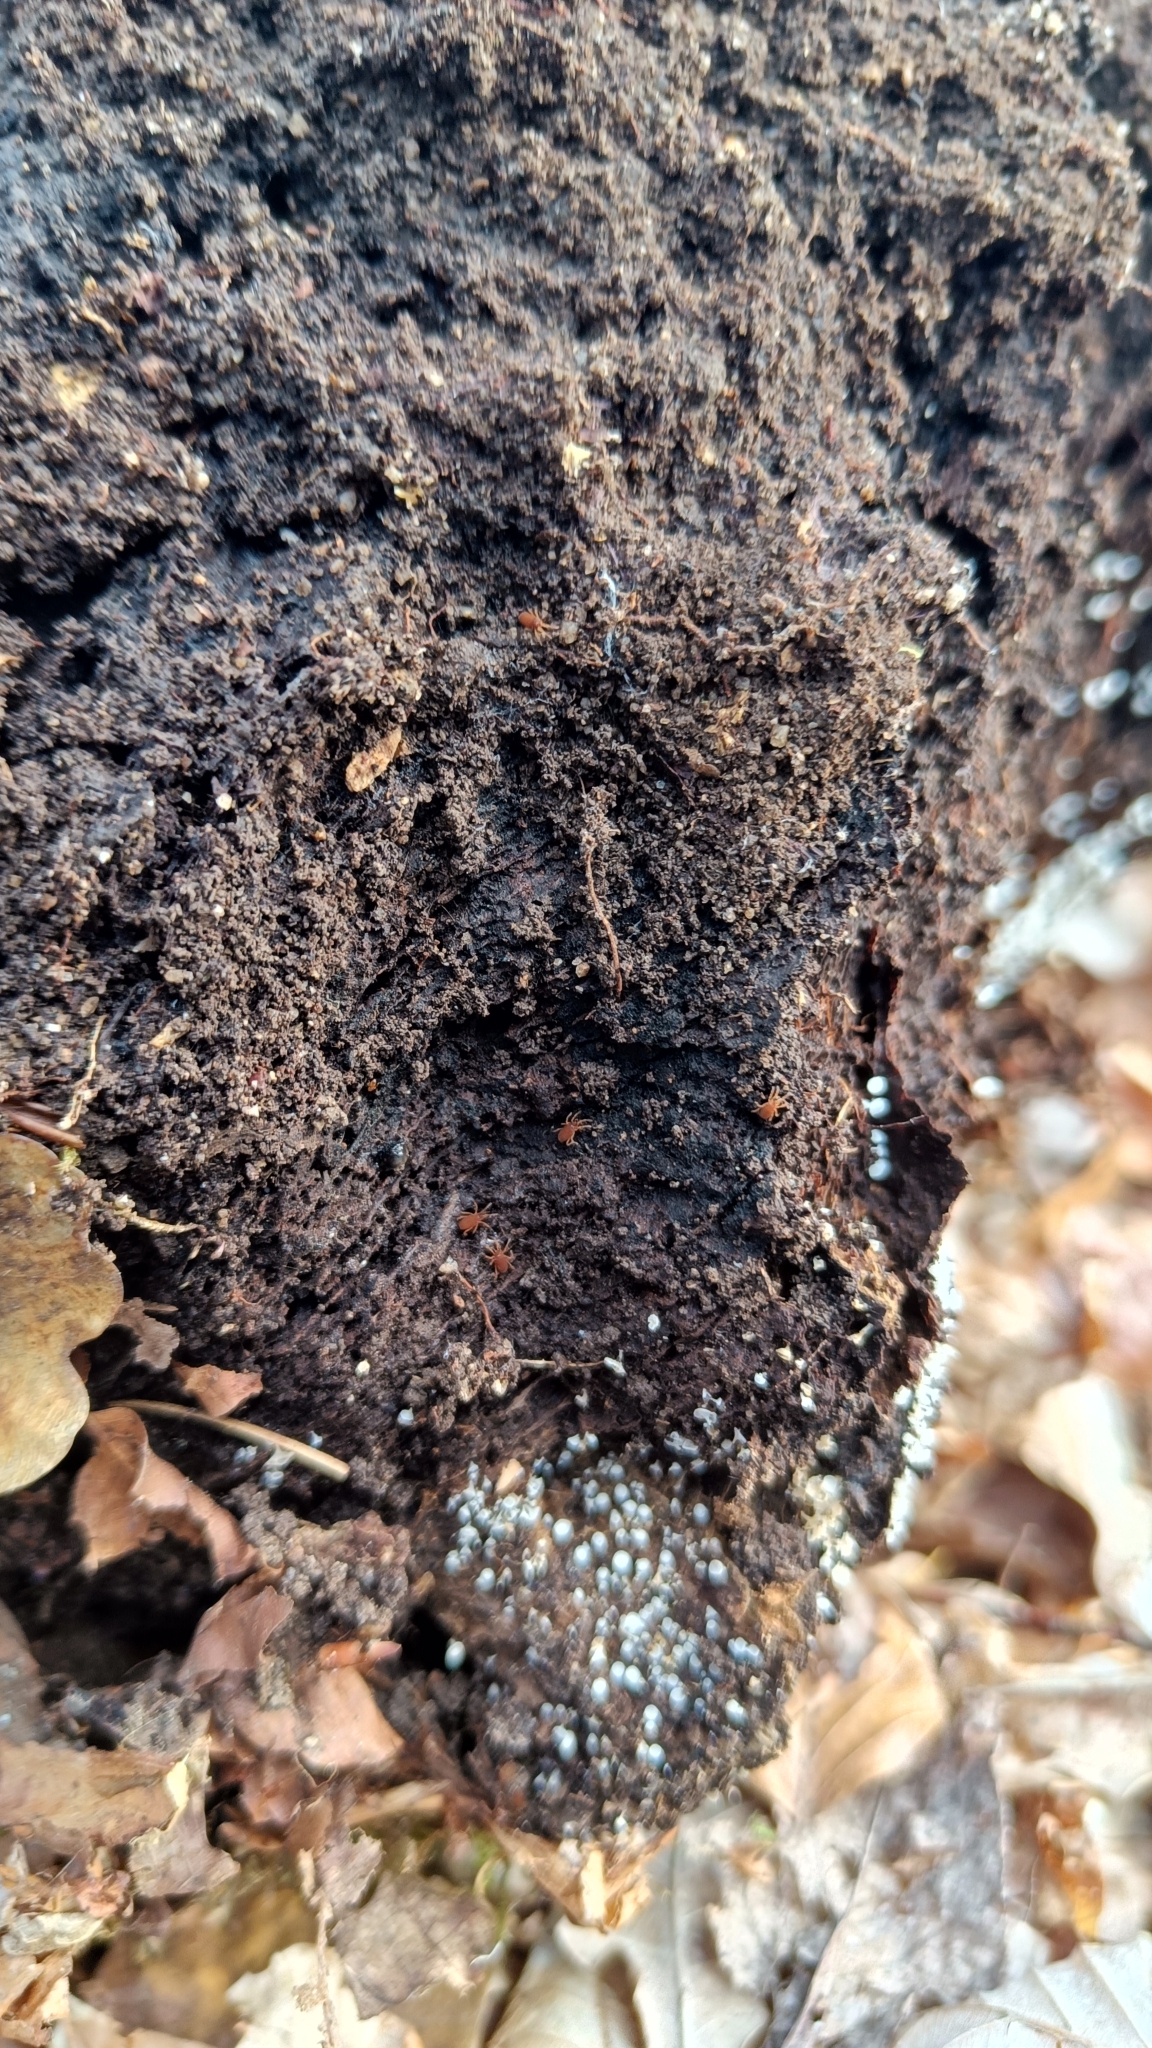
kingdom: Animalia
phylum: Arthropoda
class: Arachnida
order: Opiliones
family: Sironidae
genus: Siro
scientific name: Siro rubens
